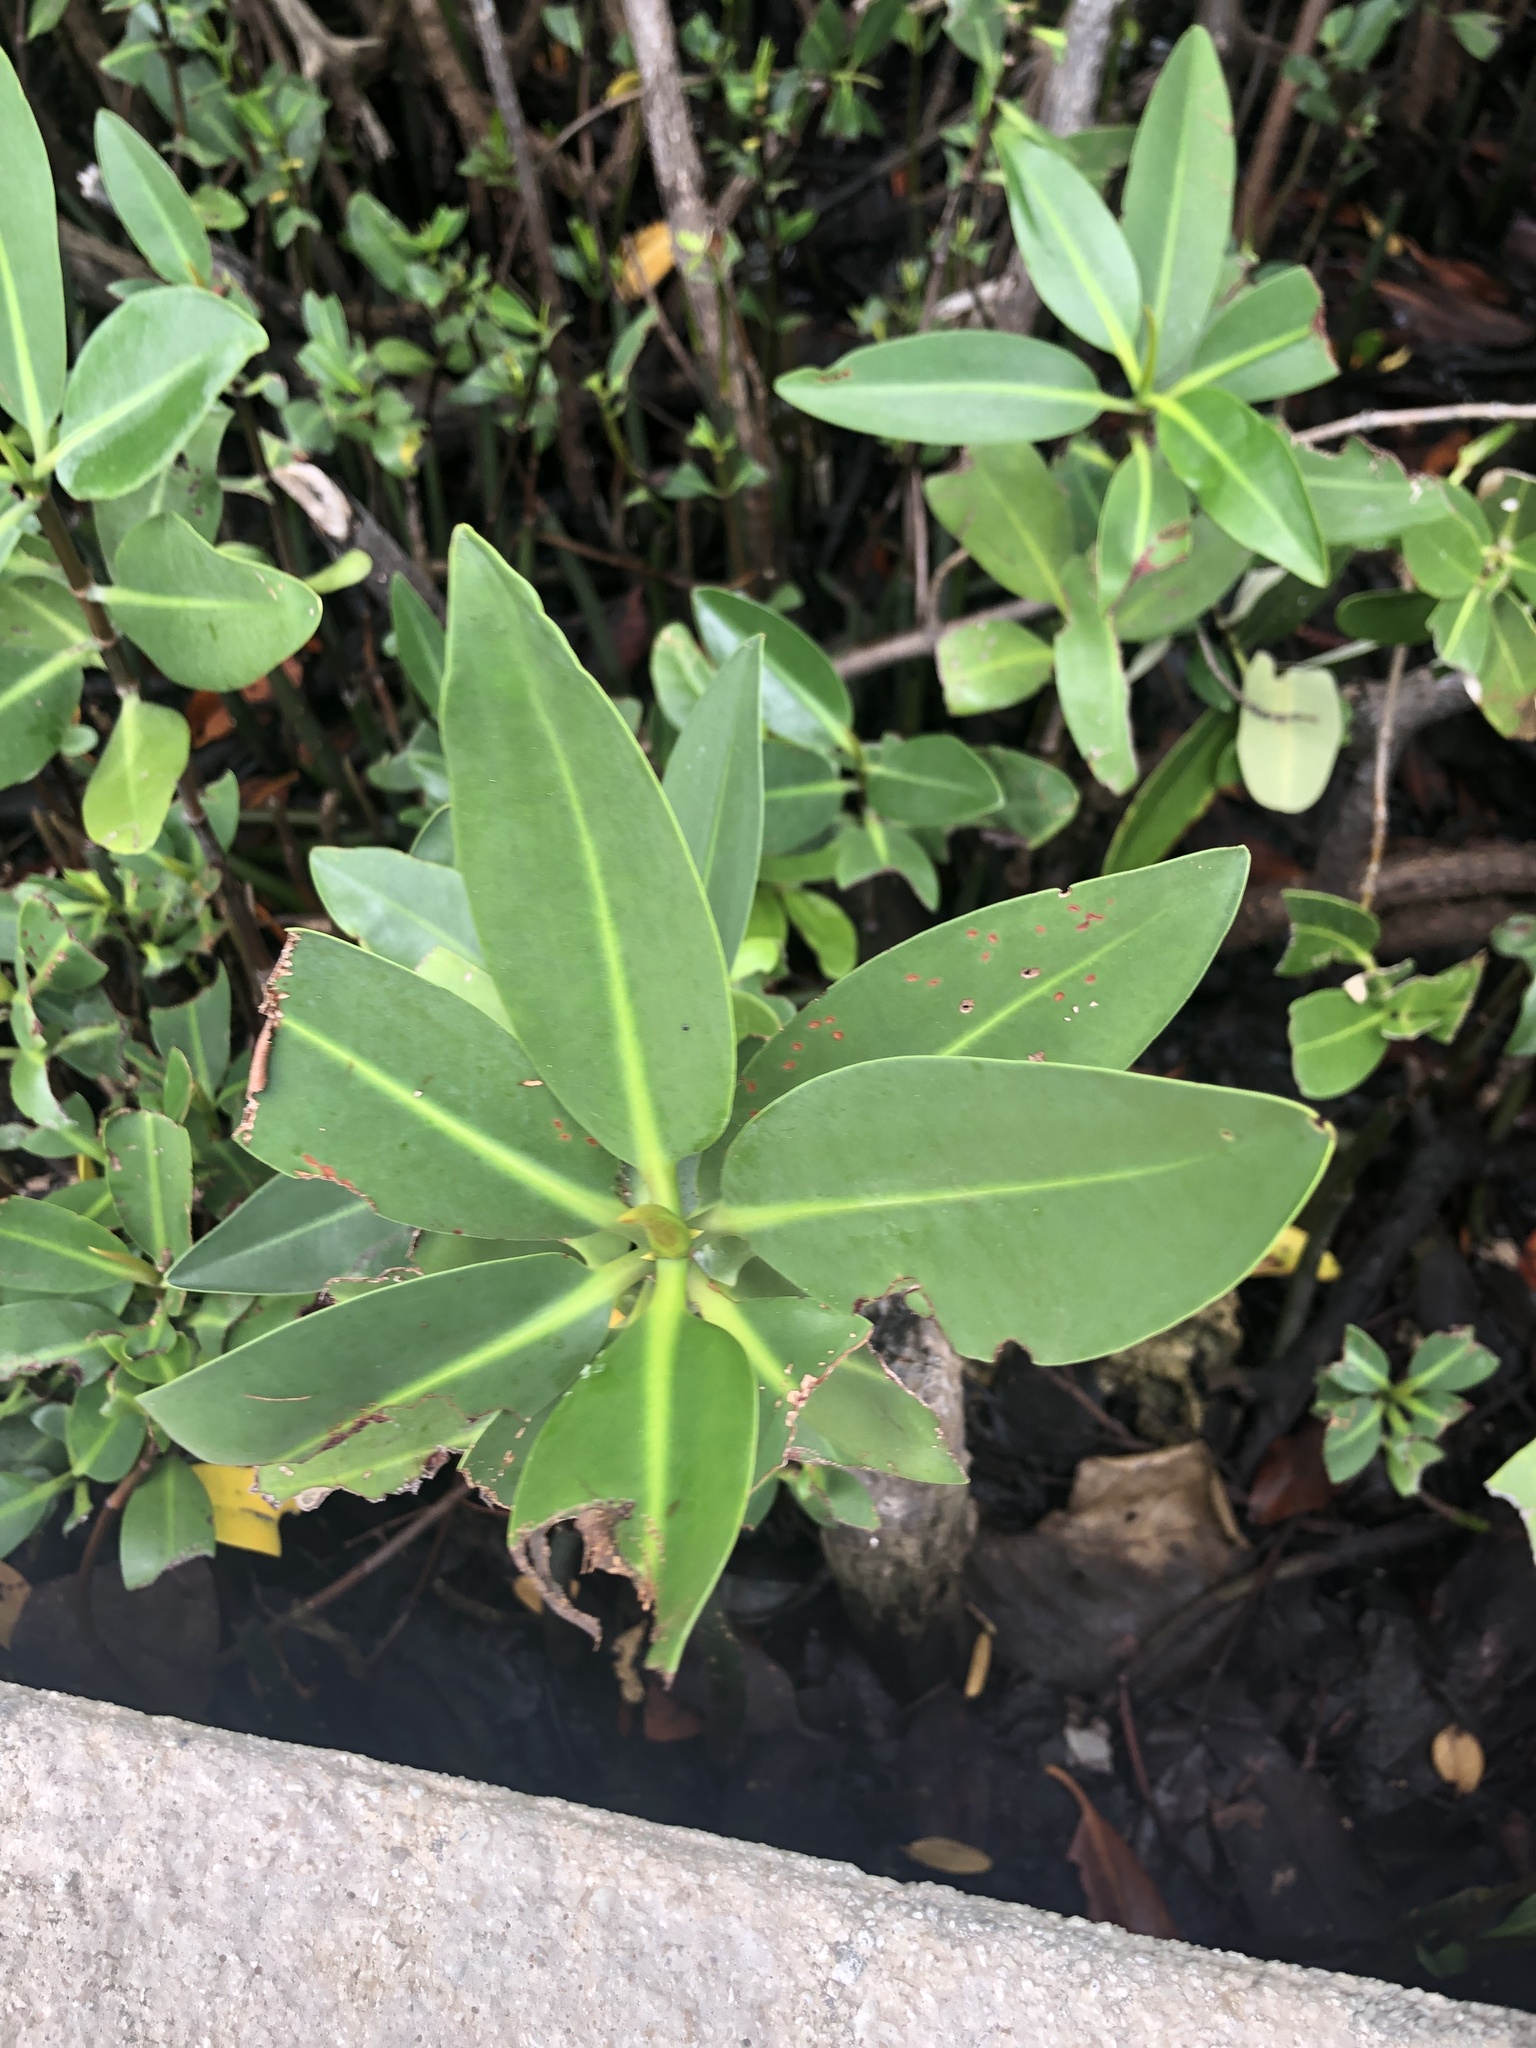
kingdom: Plantae
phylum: Tracheophyta
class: Magnoliopsida
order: Malpighiales
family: Rhizophoraceae
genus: Rhizophora
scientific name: Rhizophora mangle
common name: Red mangrove
